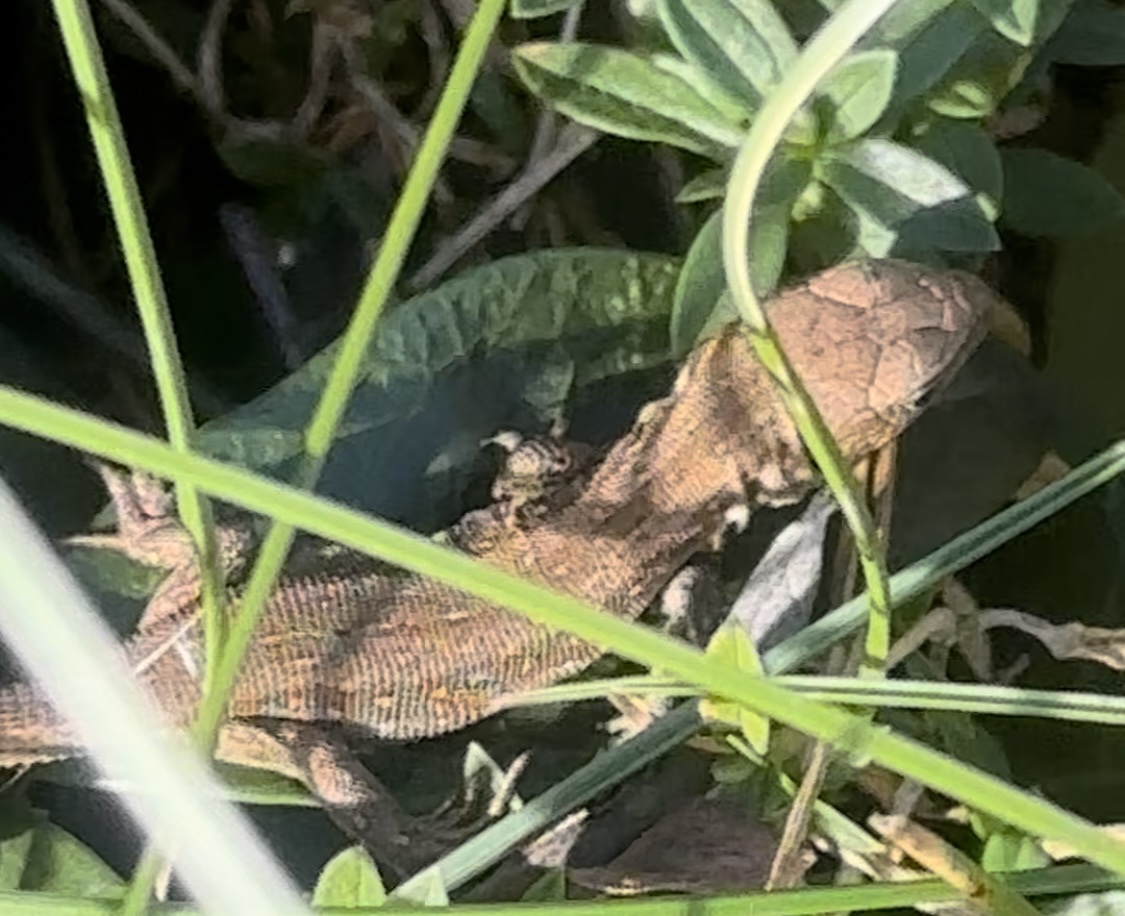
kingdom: Animalia
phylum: Chordata
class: Squamata
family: Lacertidae
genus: Lacerta
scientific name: Lacerta agilis
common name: Sand lizard
